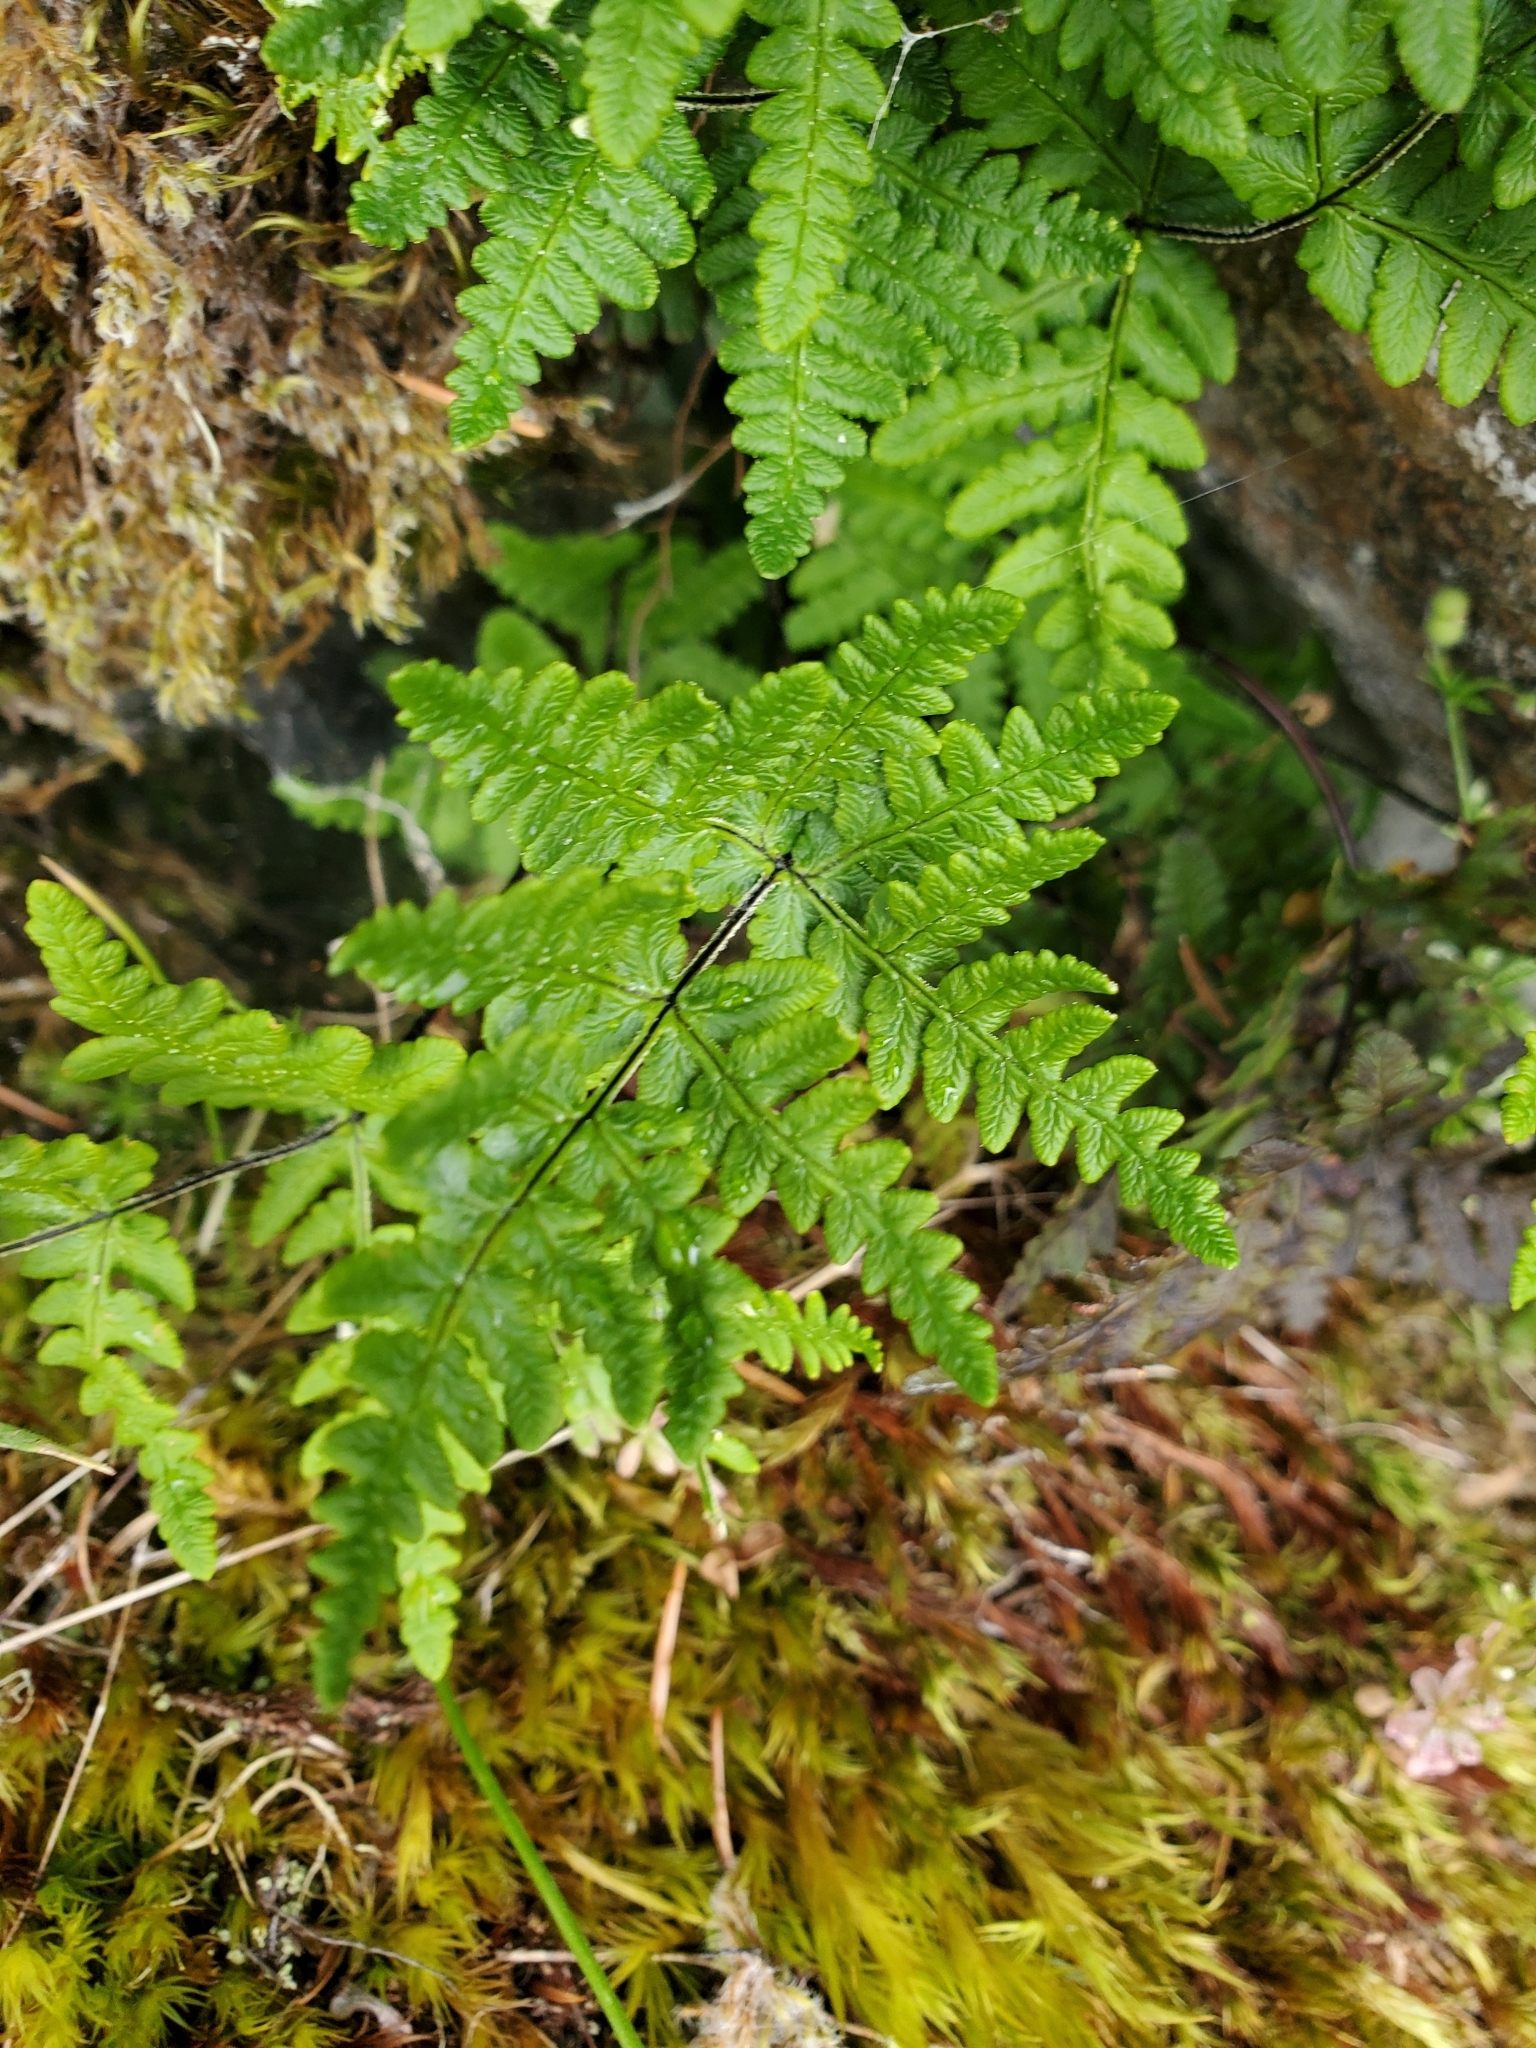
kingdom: Plantae
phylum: Tracheophyta
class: Polypodiopsida
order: Polypodiales
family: Pteridaceae
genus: Pentagramma
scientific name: Pentagramma triangularis
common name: Gold fern
